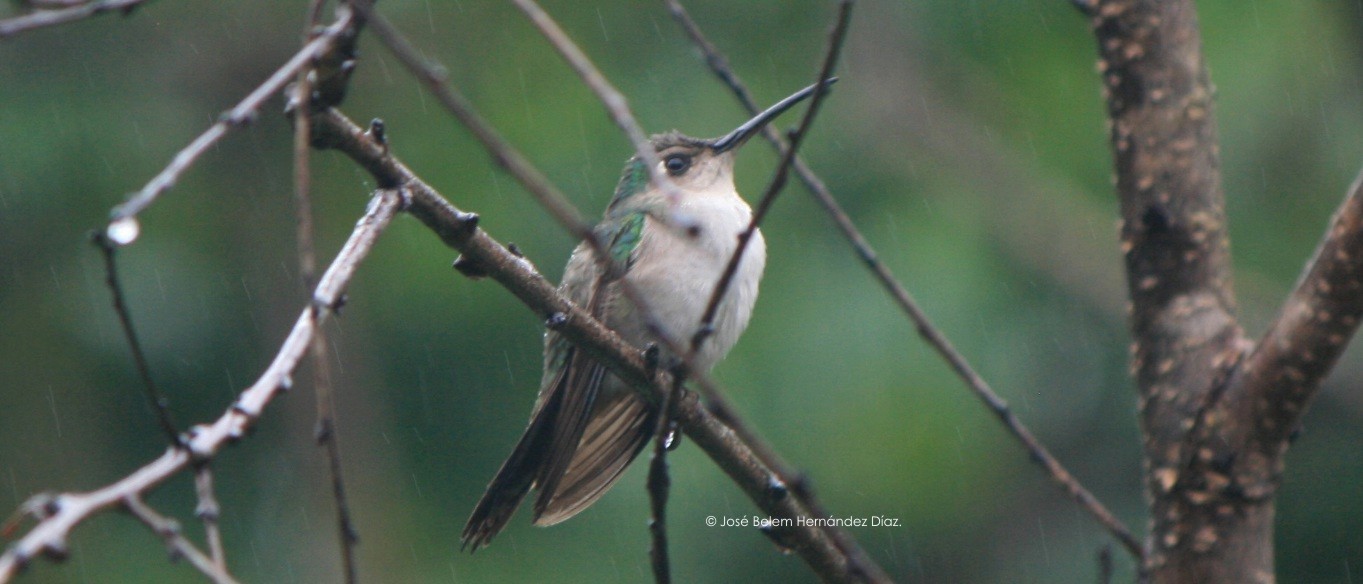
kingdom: Animalia
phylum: Chordata
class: Aves
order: Apodiformes
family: Trochilidae
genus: Pampa
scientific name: Pampa curvipennis
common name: Curve-winged sabrewing
